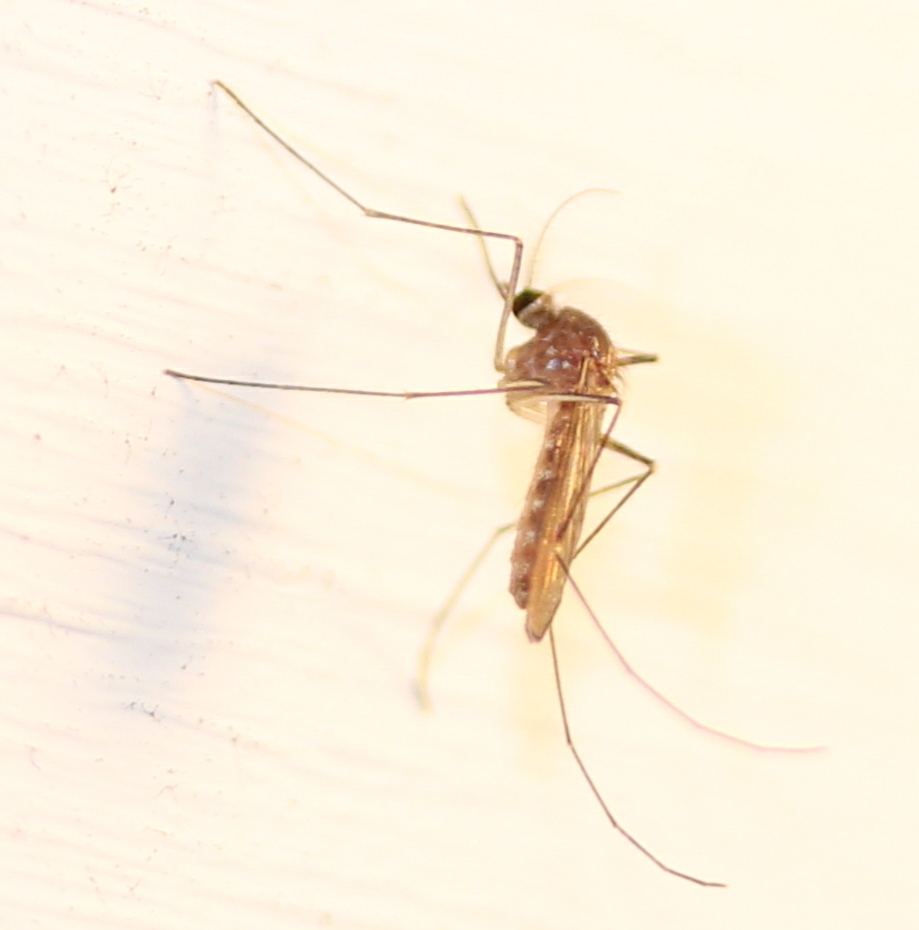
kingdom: Animalia
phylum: Arthropoda
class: Insecta
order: Diptera
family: Culicidae
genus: Culex
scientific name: Culex pipiens
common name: Mosquito
